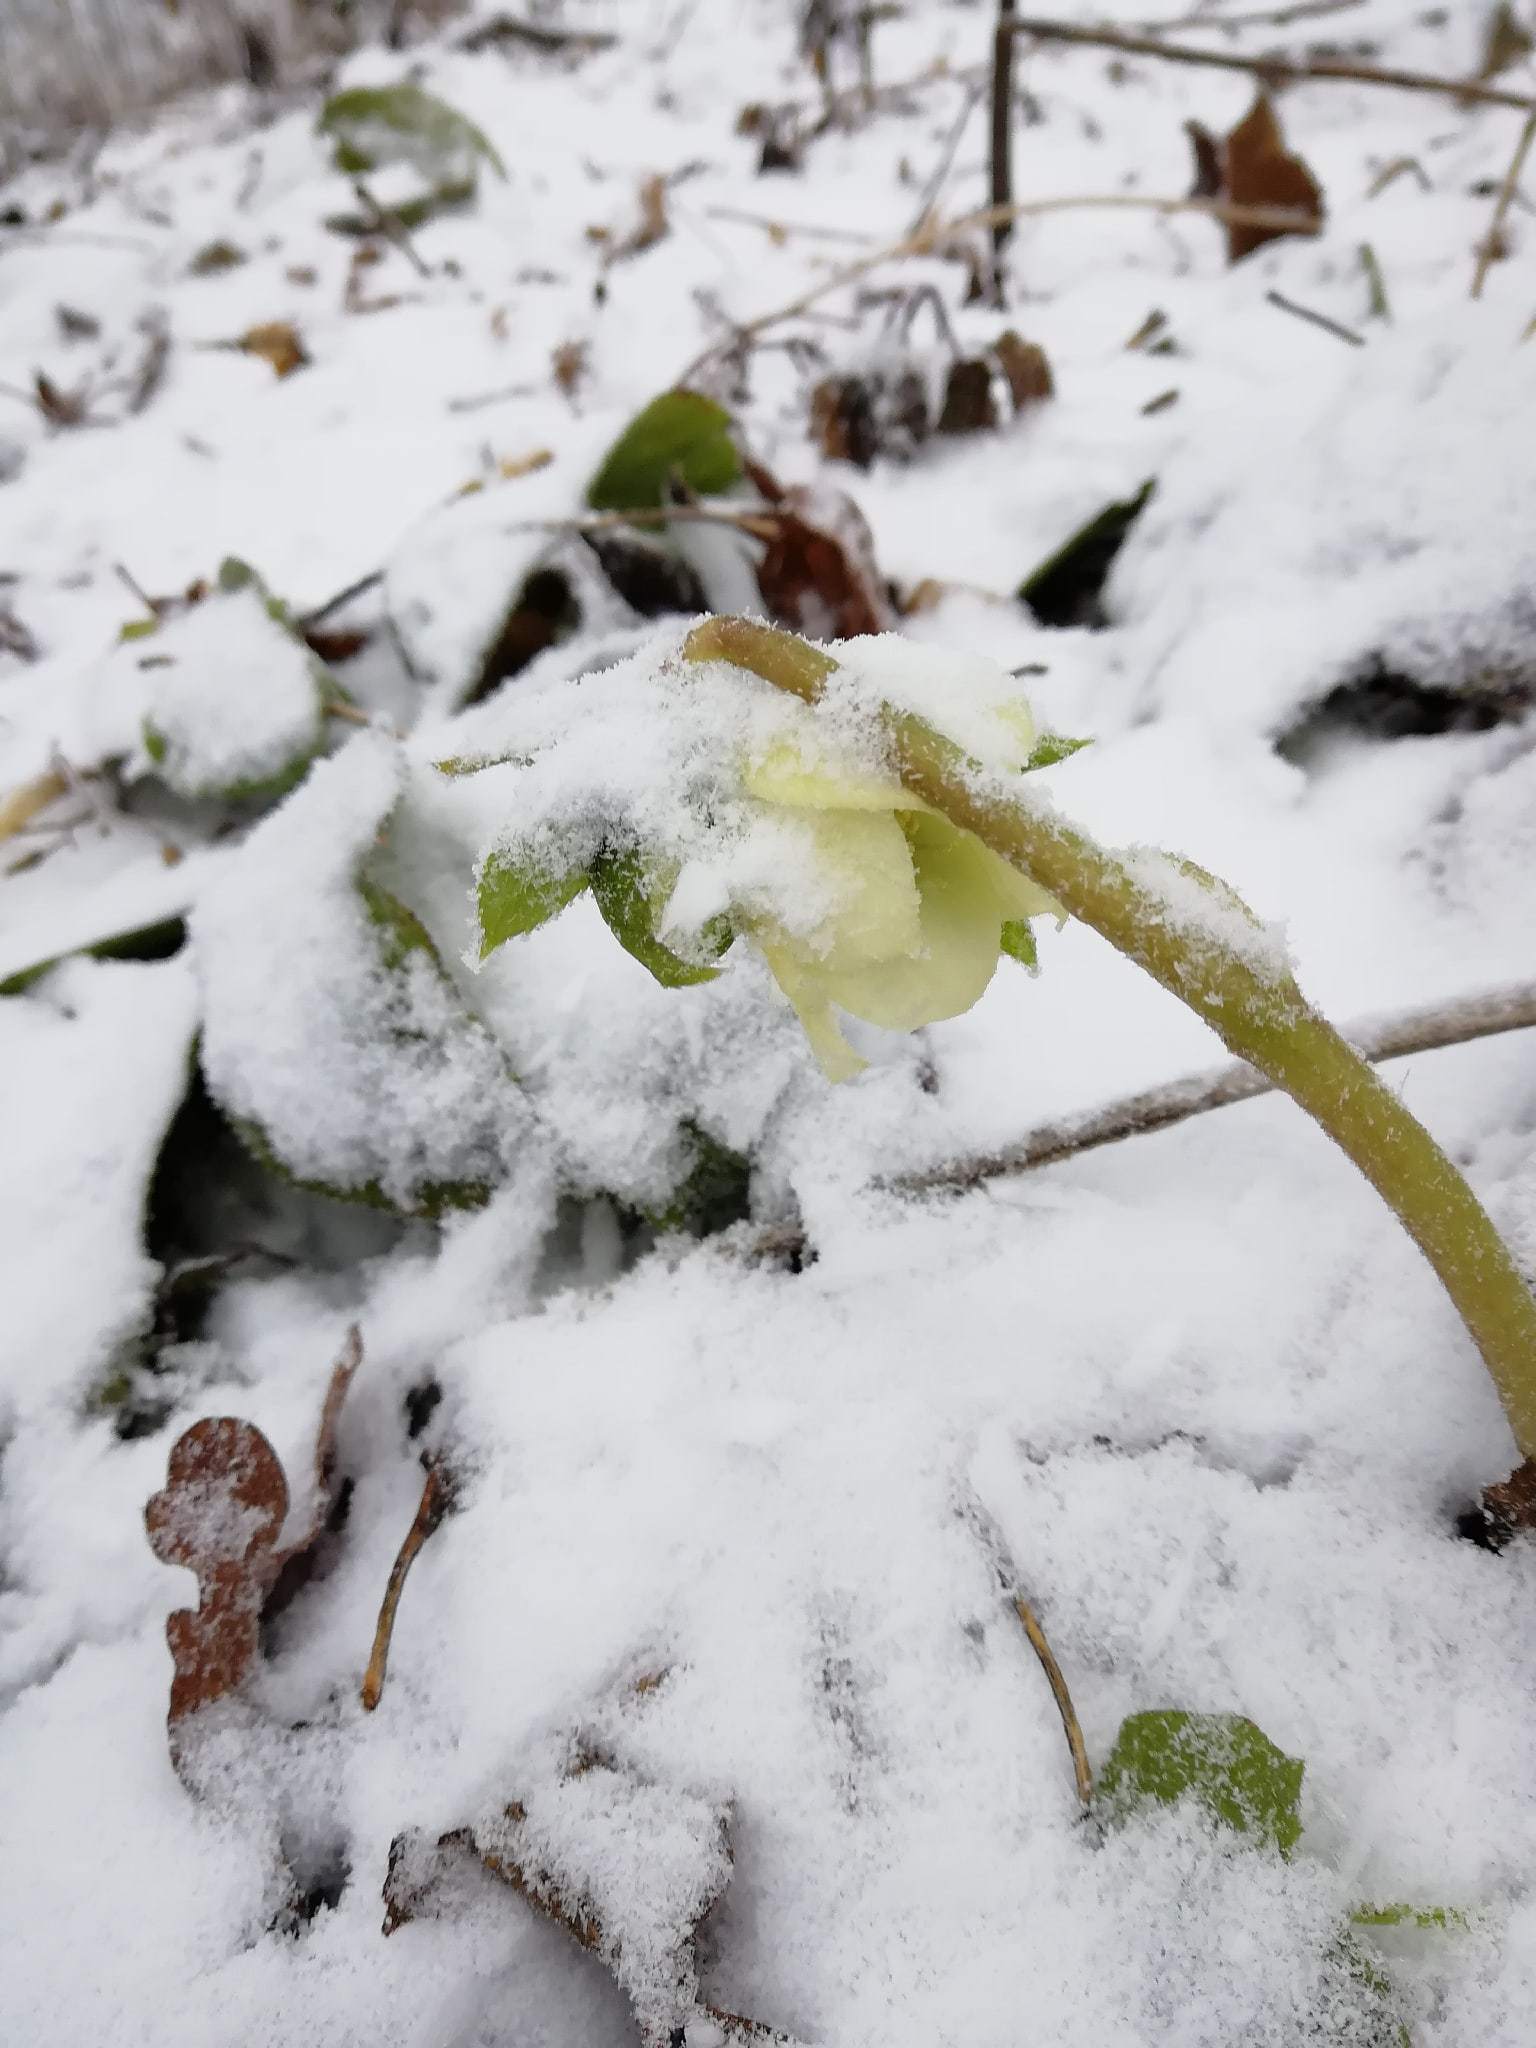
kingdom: Plantae
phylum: Tracheophyta
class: Magnoliopsida
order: Ranunculales
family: Ranunculaceae
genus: Helleborus
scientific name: Helleborus orientalis
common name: Lenten-rose
